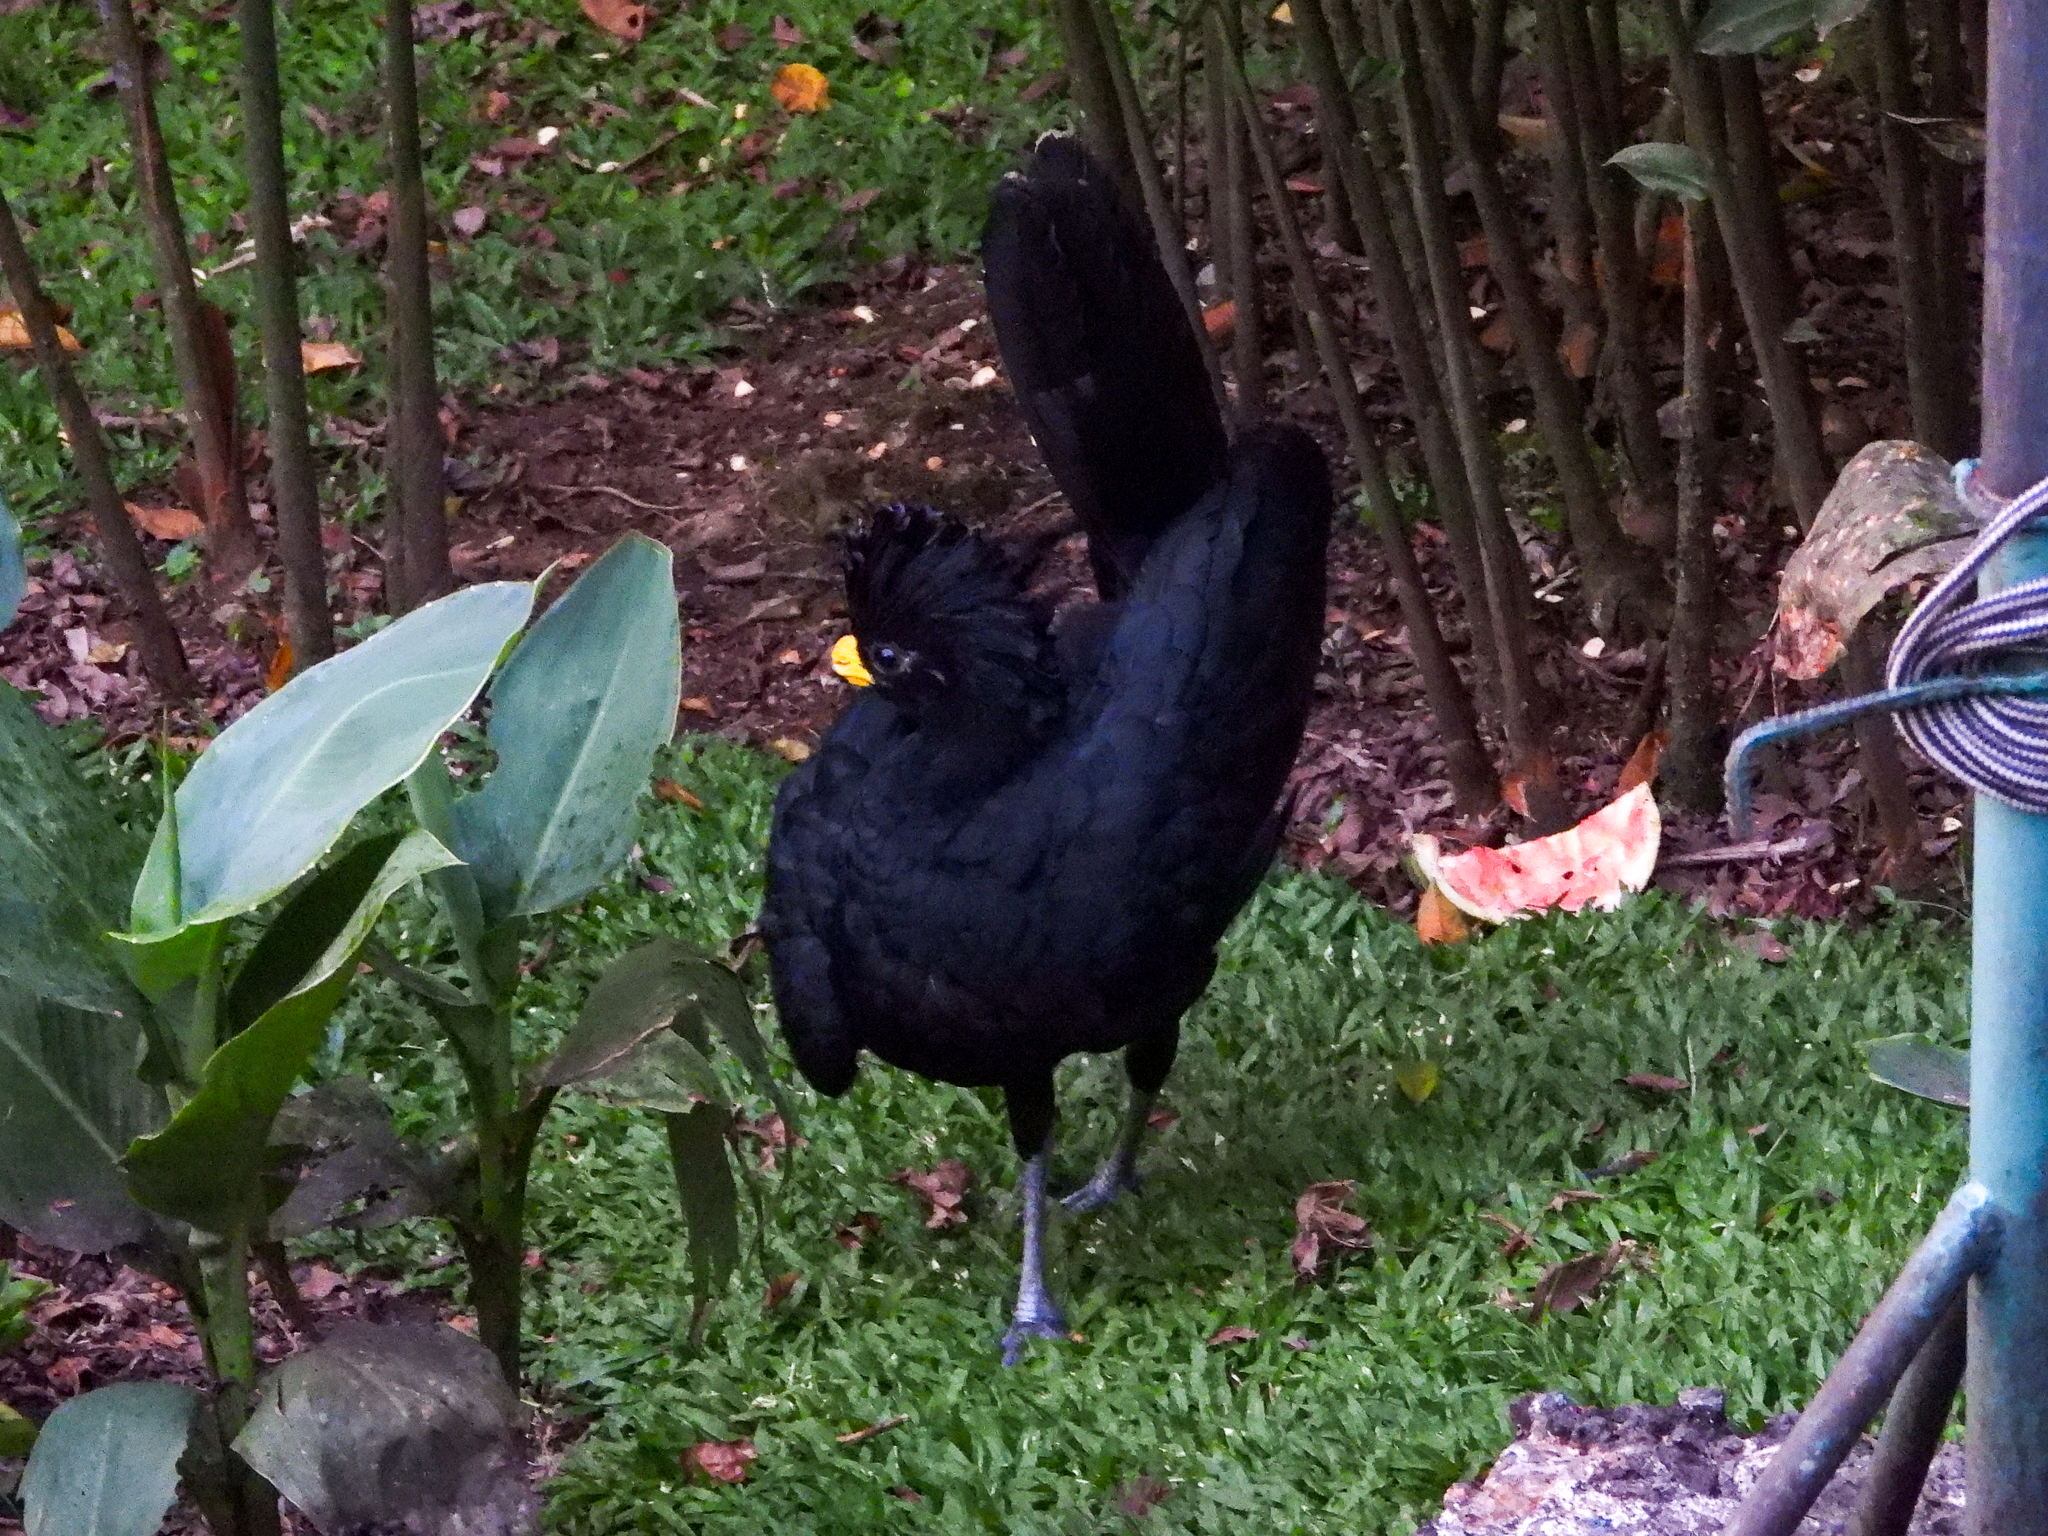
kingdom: Animalia
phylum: Chordata
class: Aves
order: Galliformes
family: Cracidae
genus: Crax
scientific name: Crax rubra
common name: Great curassow
